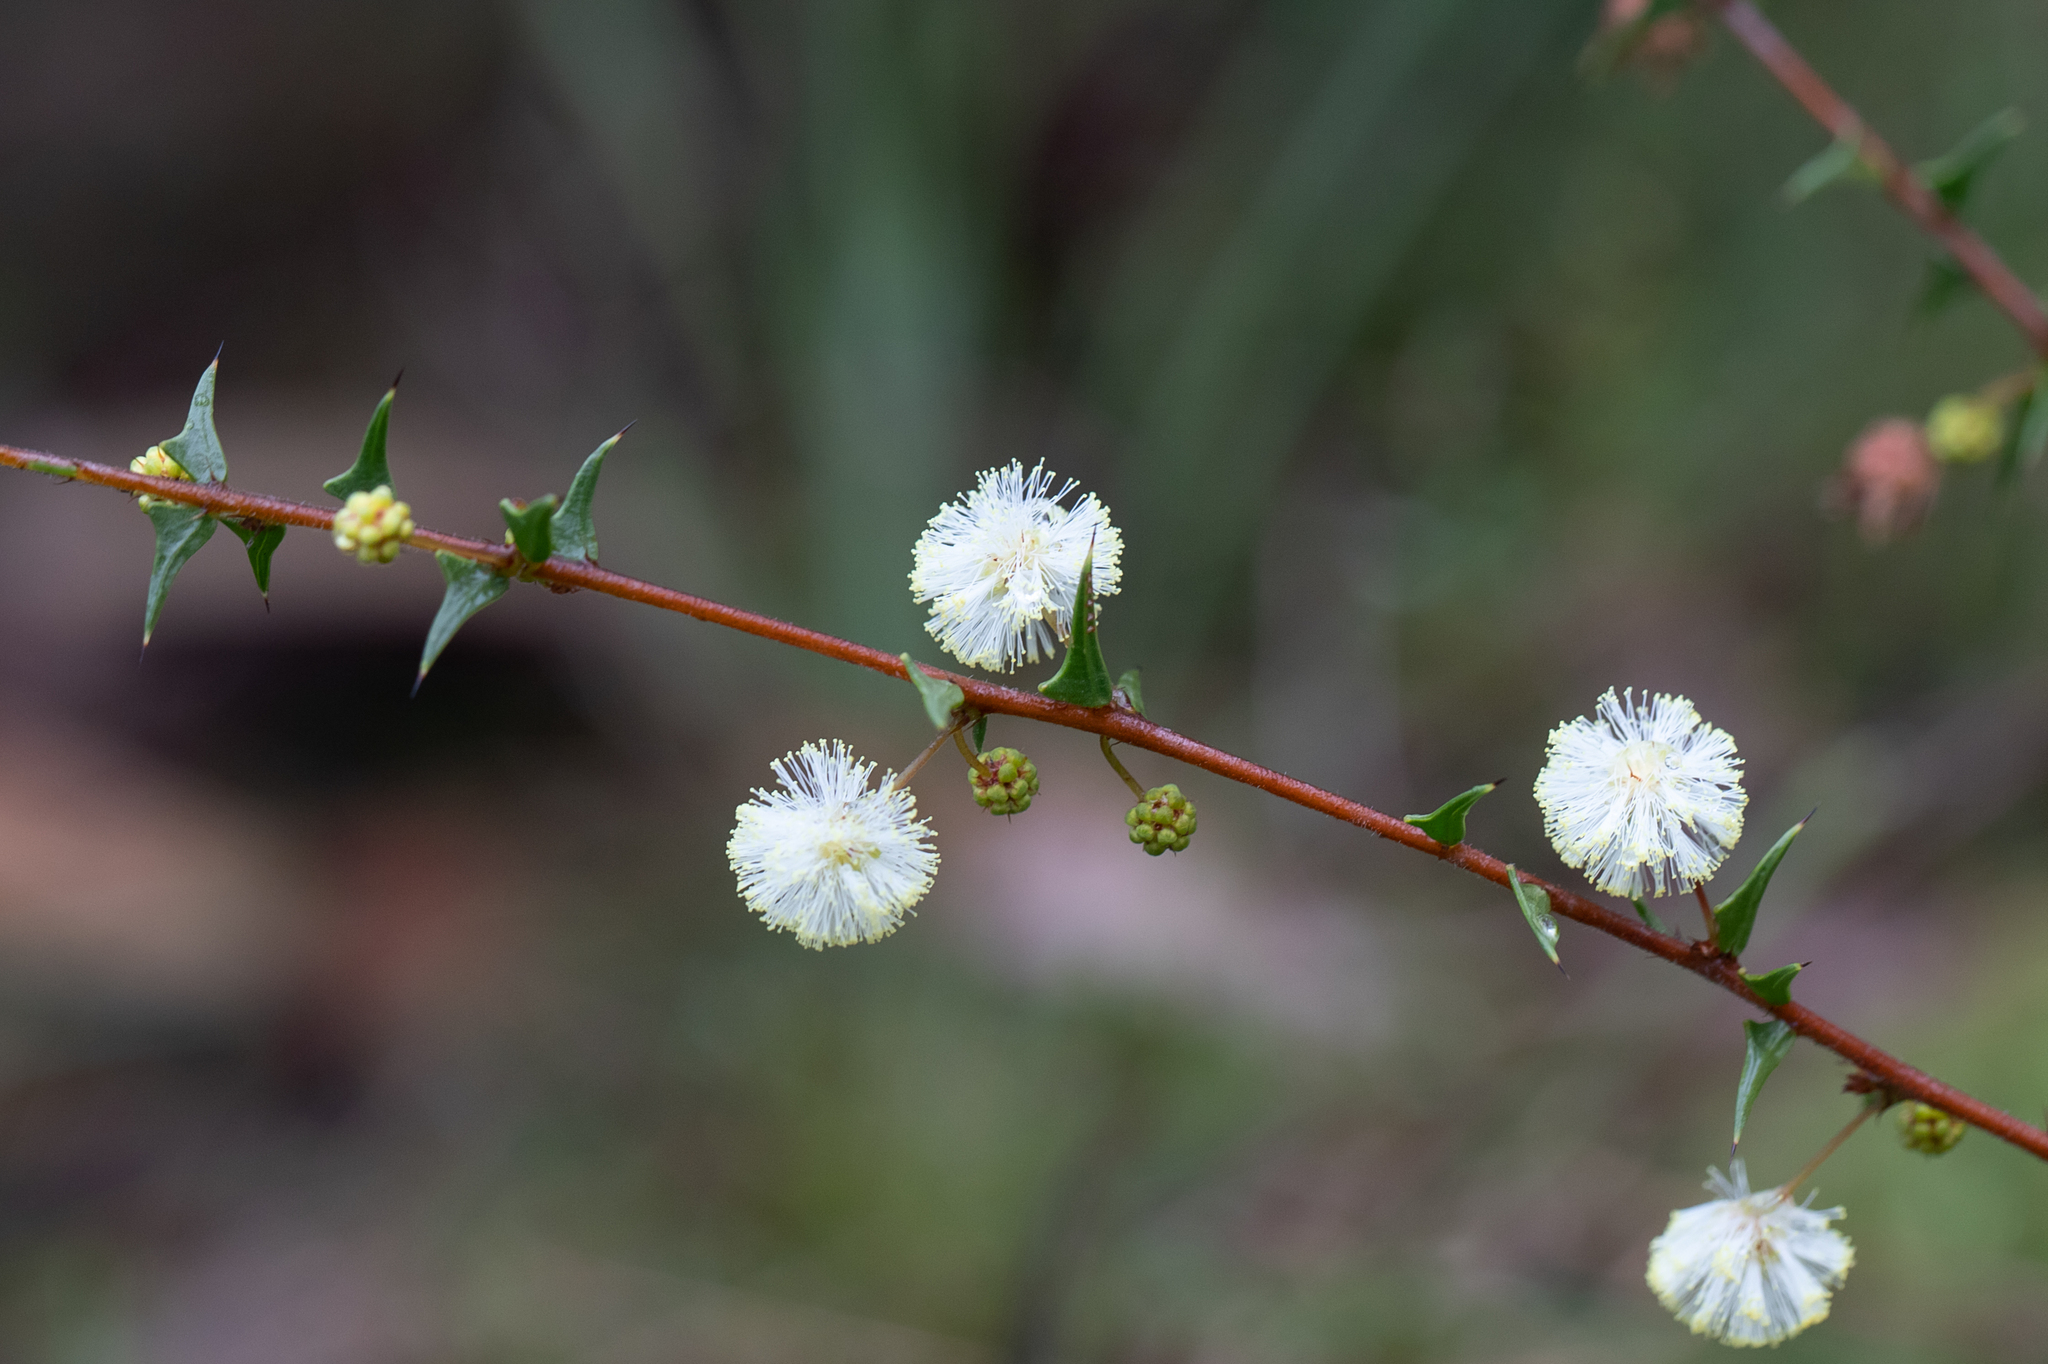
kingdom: Plantae
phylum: Tracheophyta
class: Magnoliopsida
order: Fabales
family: Fabaceae
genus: Acacia
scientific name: Acacia gunnii
